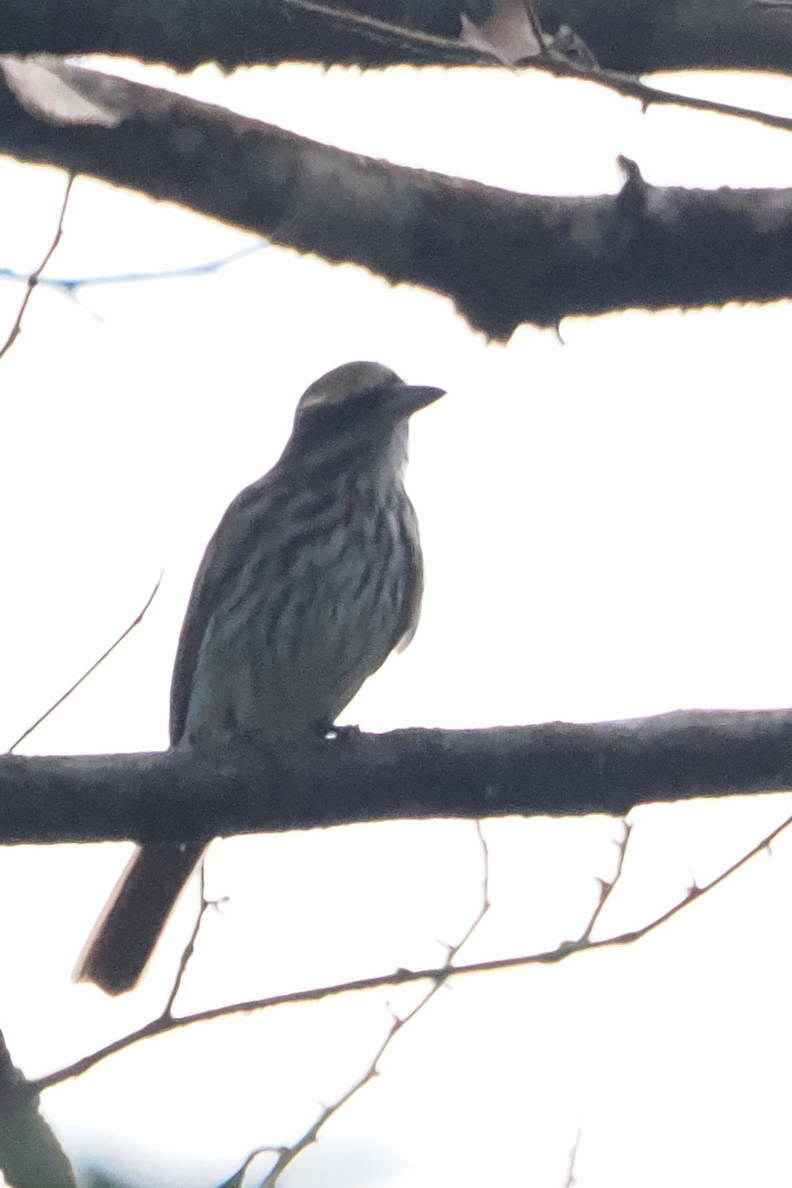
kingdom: Animalia
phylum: Chordata
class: Aves
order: Passeriformes
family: Tyrannidae
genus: Myiodynastes
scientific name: Myiodynastes maculatus
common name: Streaked flycatcher
